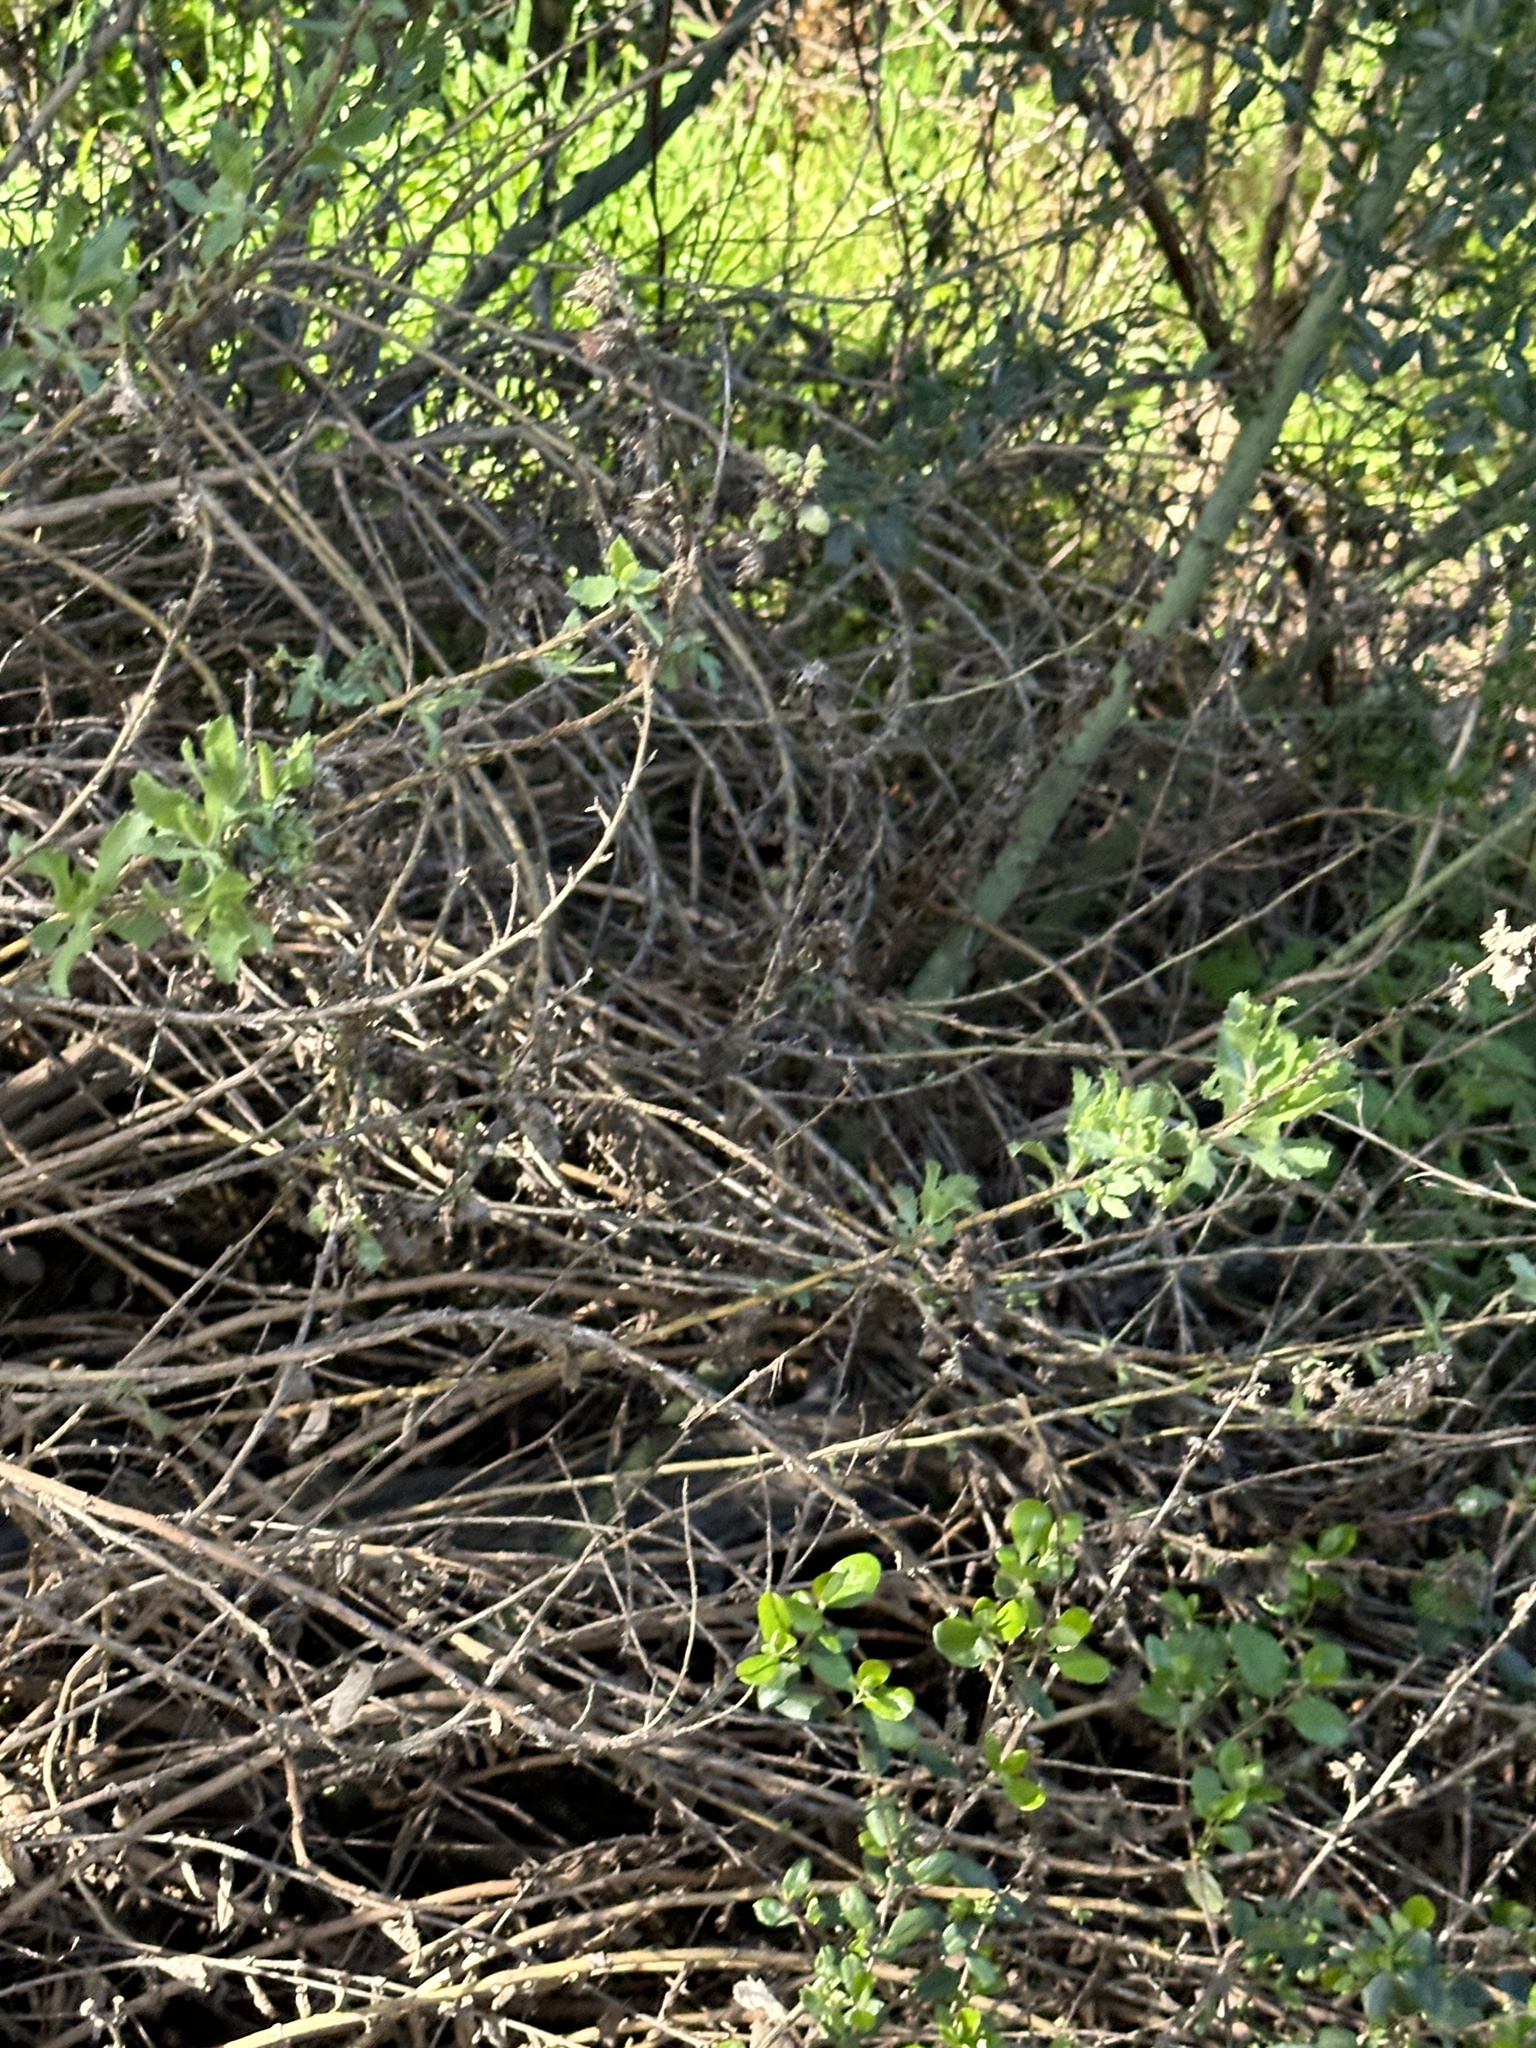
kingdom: Plantae
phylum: Tracheophyta
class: Magnoliopsida
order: Dipsacales
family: Caprifoliaceae
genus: Lonicera
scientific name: Lonicera subspicata
